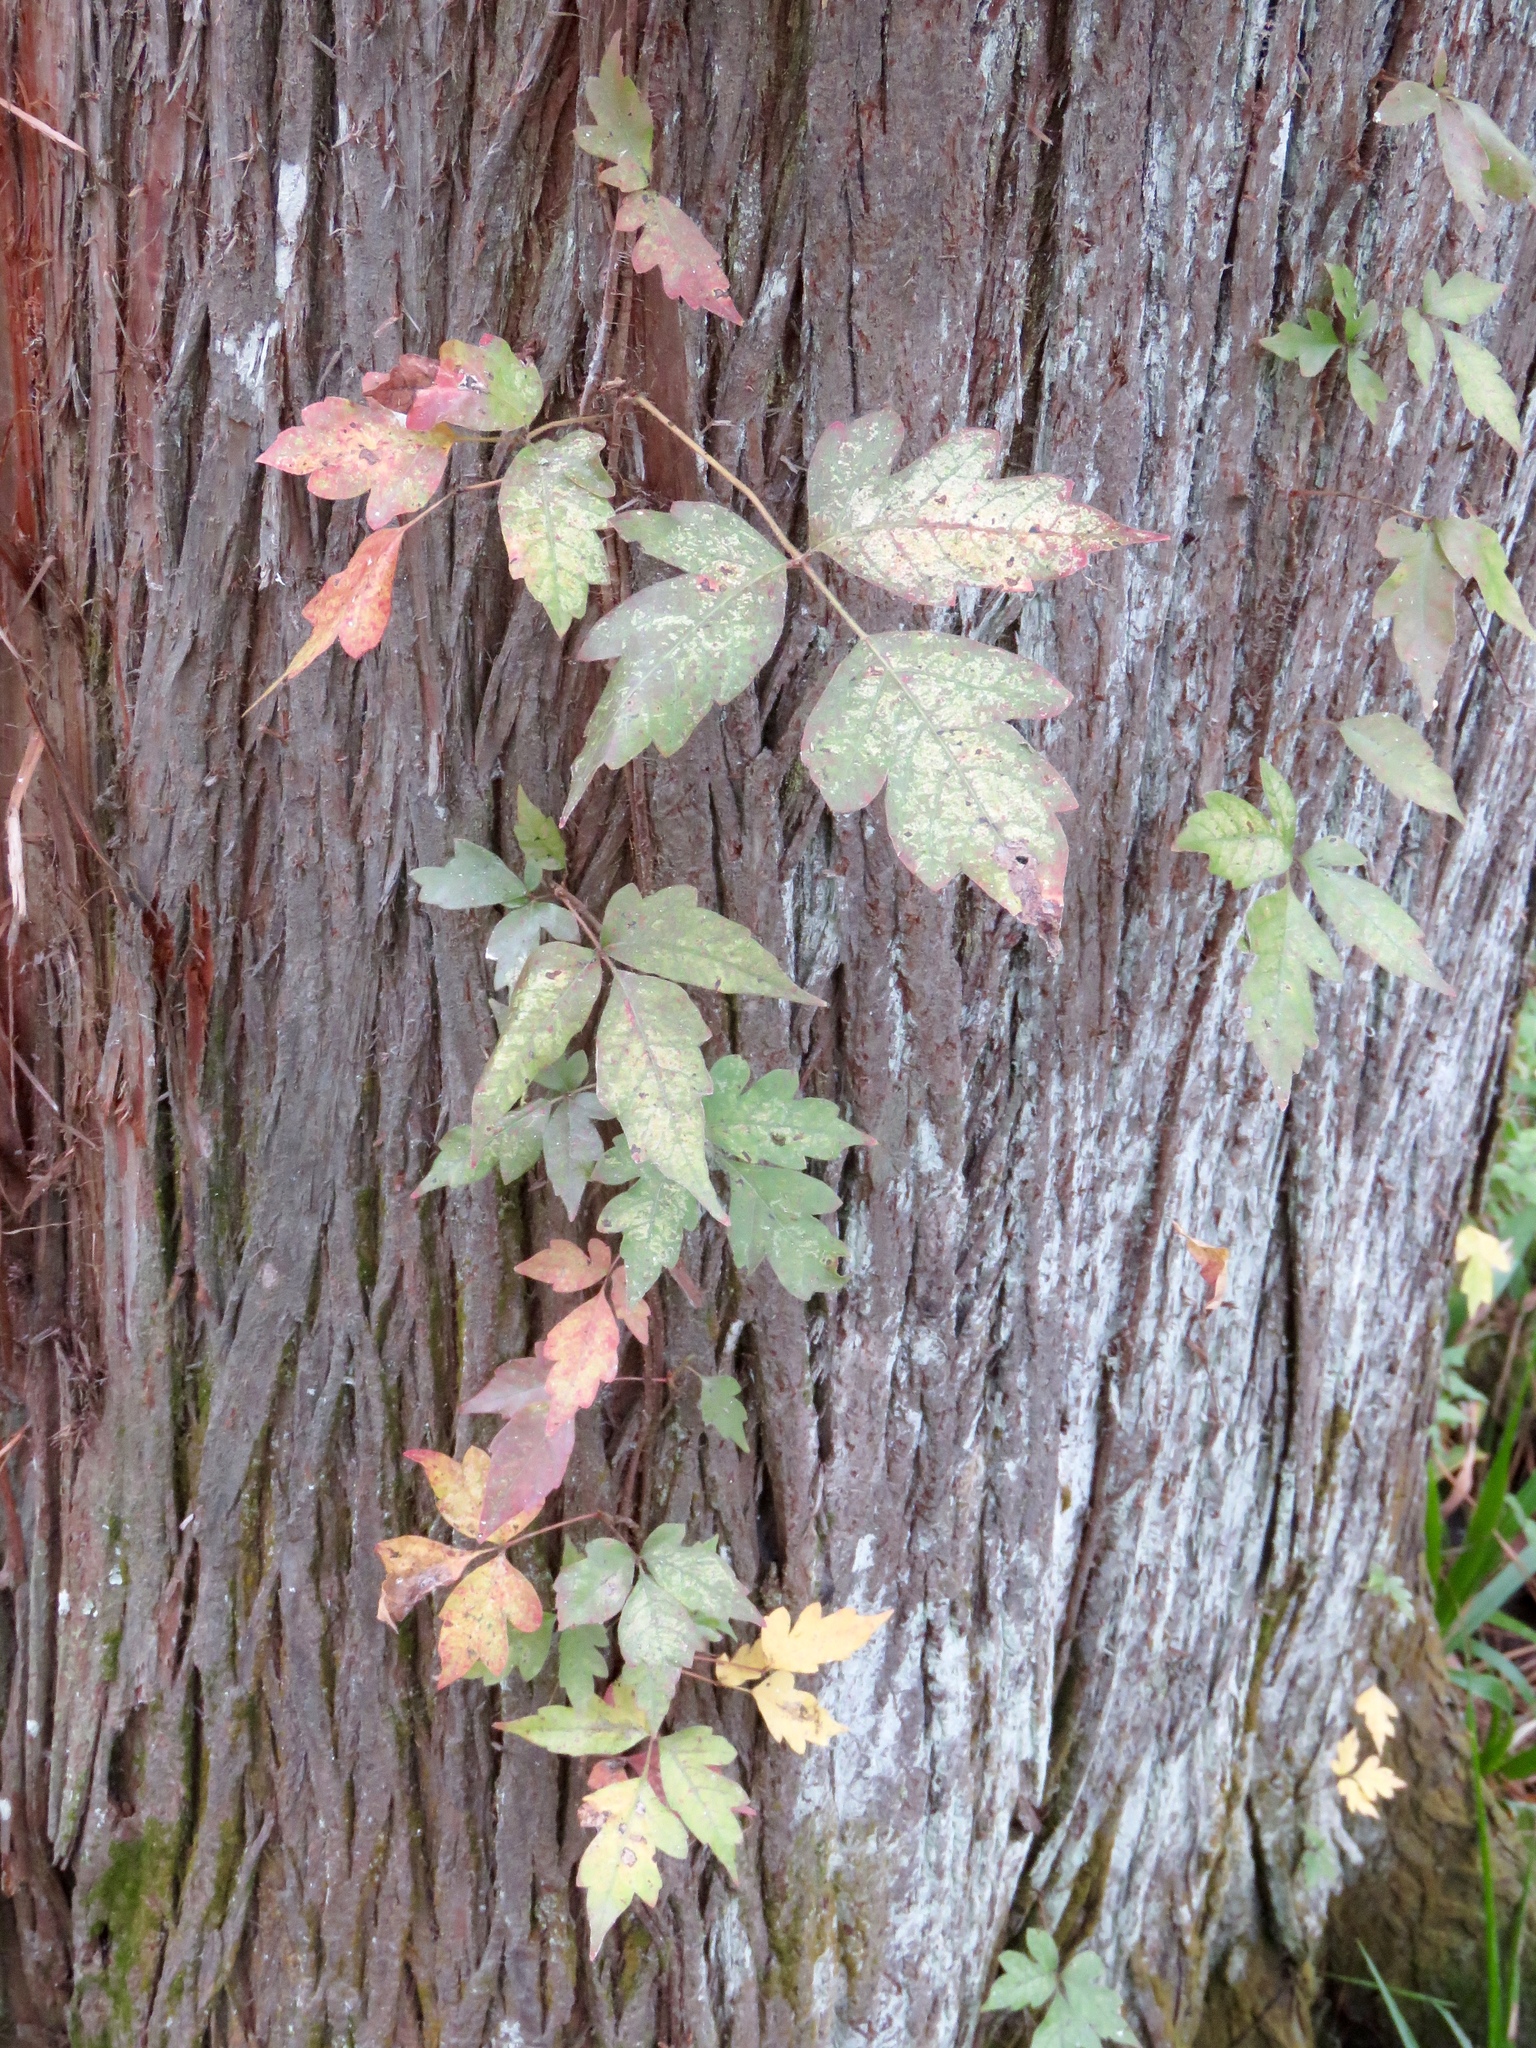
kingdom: Plantae
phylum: Tracheophyta
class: Magnoliopsida
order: Sapindales
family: Anacardiaceae
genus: Toxicodendron
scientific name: Toxicodendron radicans
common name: Poison ivy
